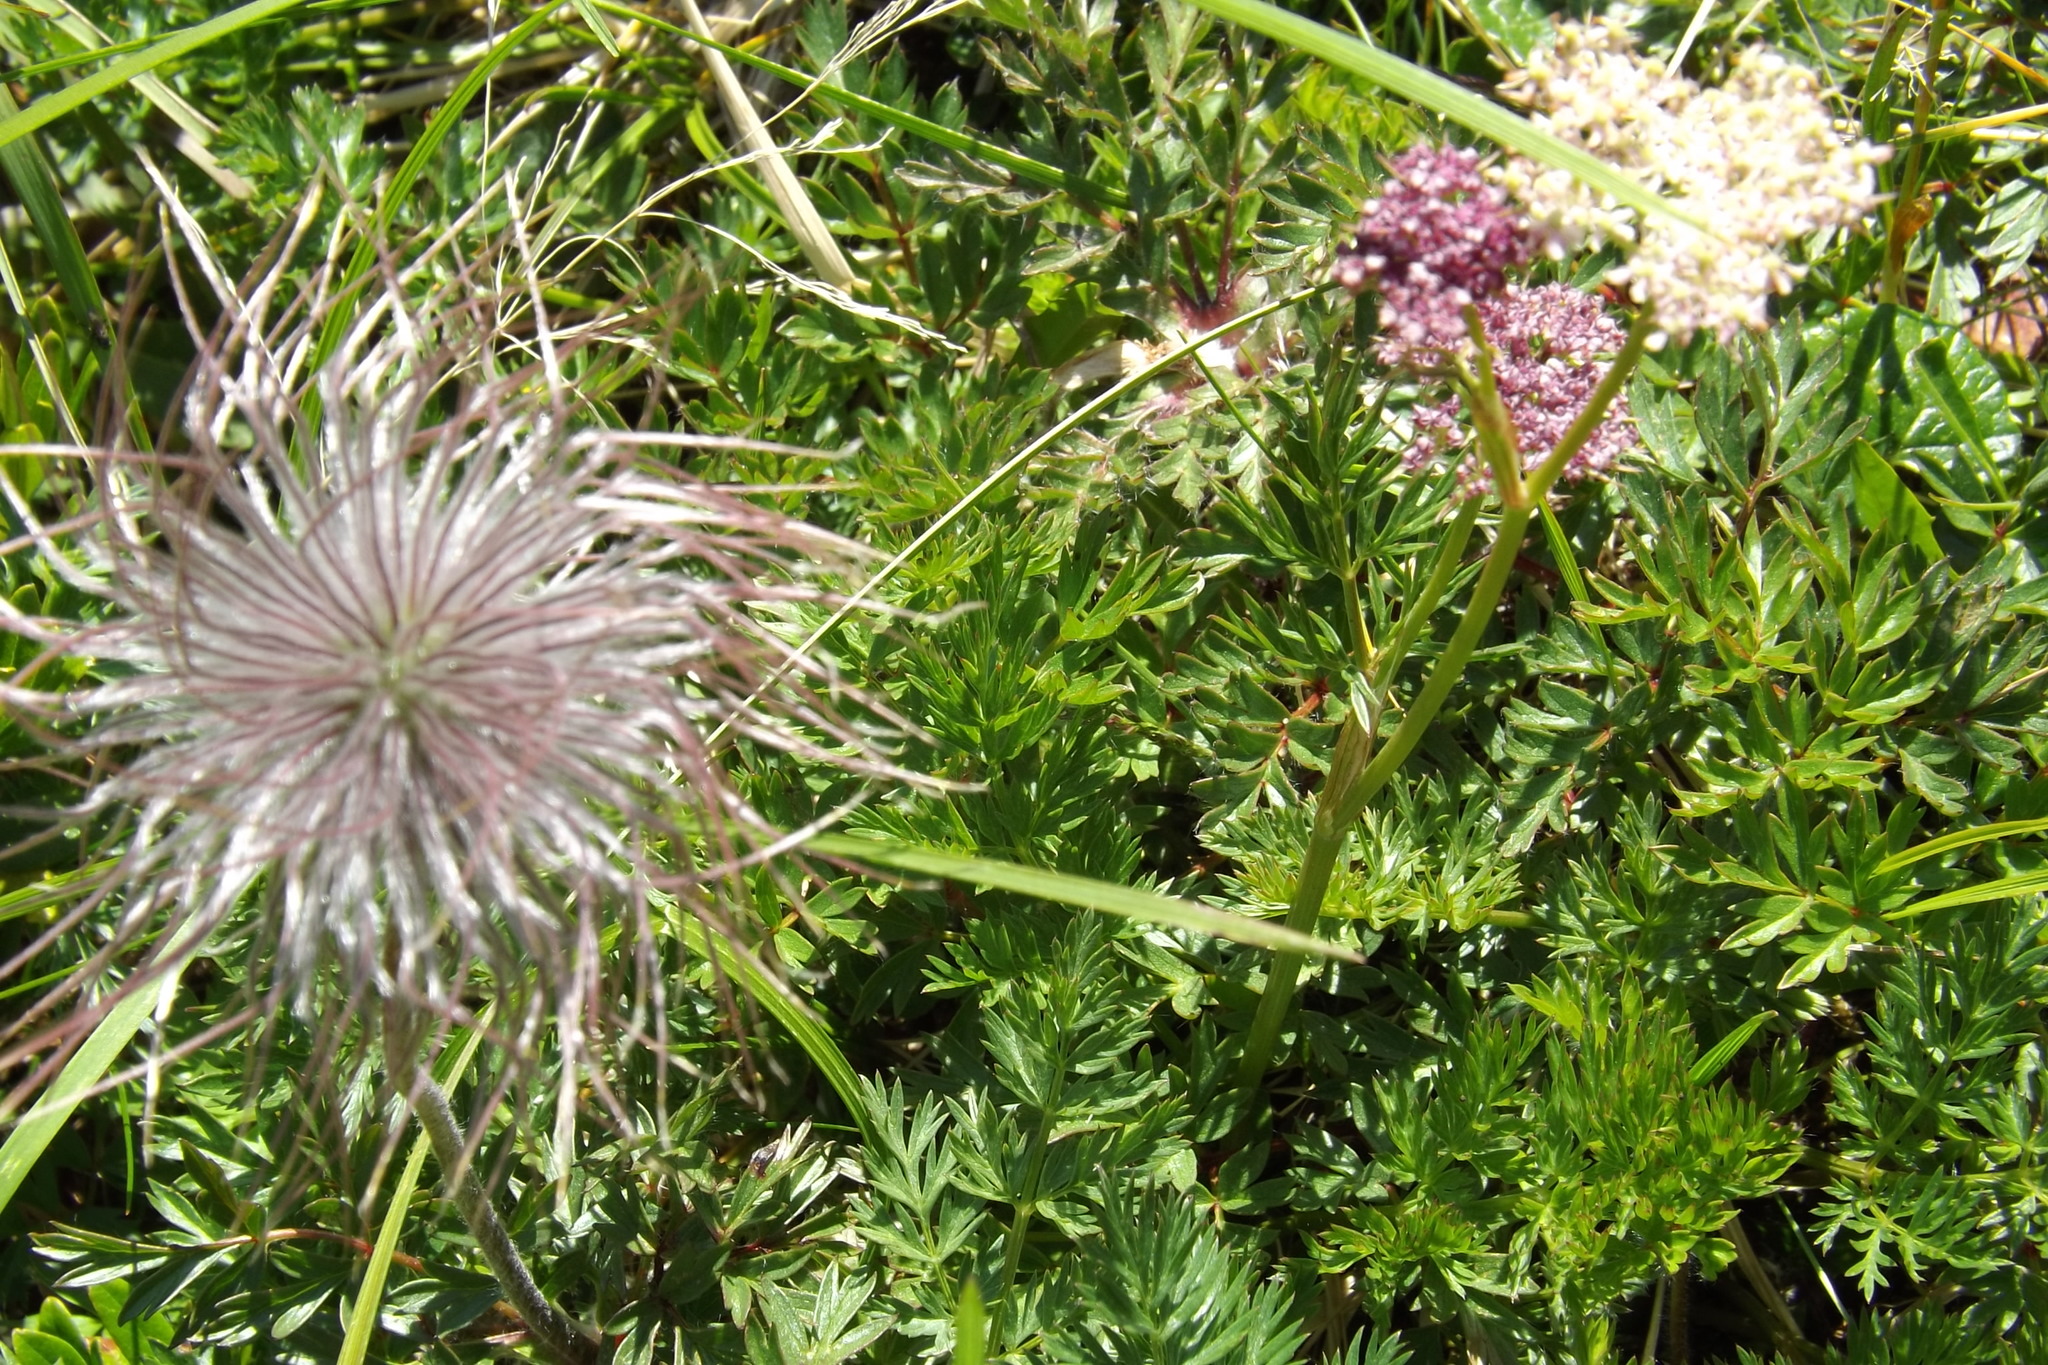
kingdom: Plantae
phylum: Tracheophyta
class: Magnoliopsida
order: Ranunculales
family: Ranunculaceae
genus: Pulsatilla
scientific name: Pulsatilla alpina
